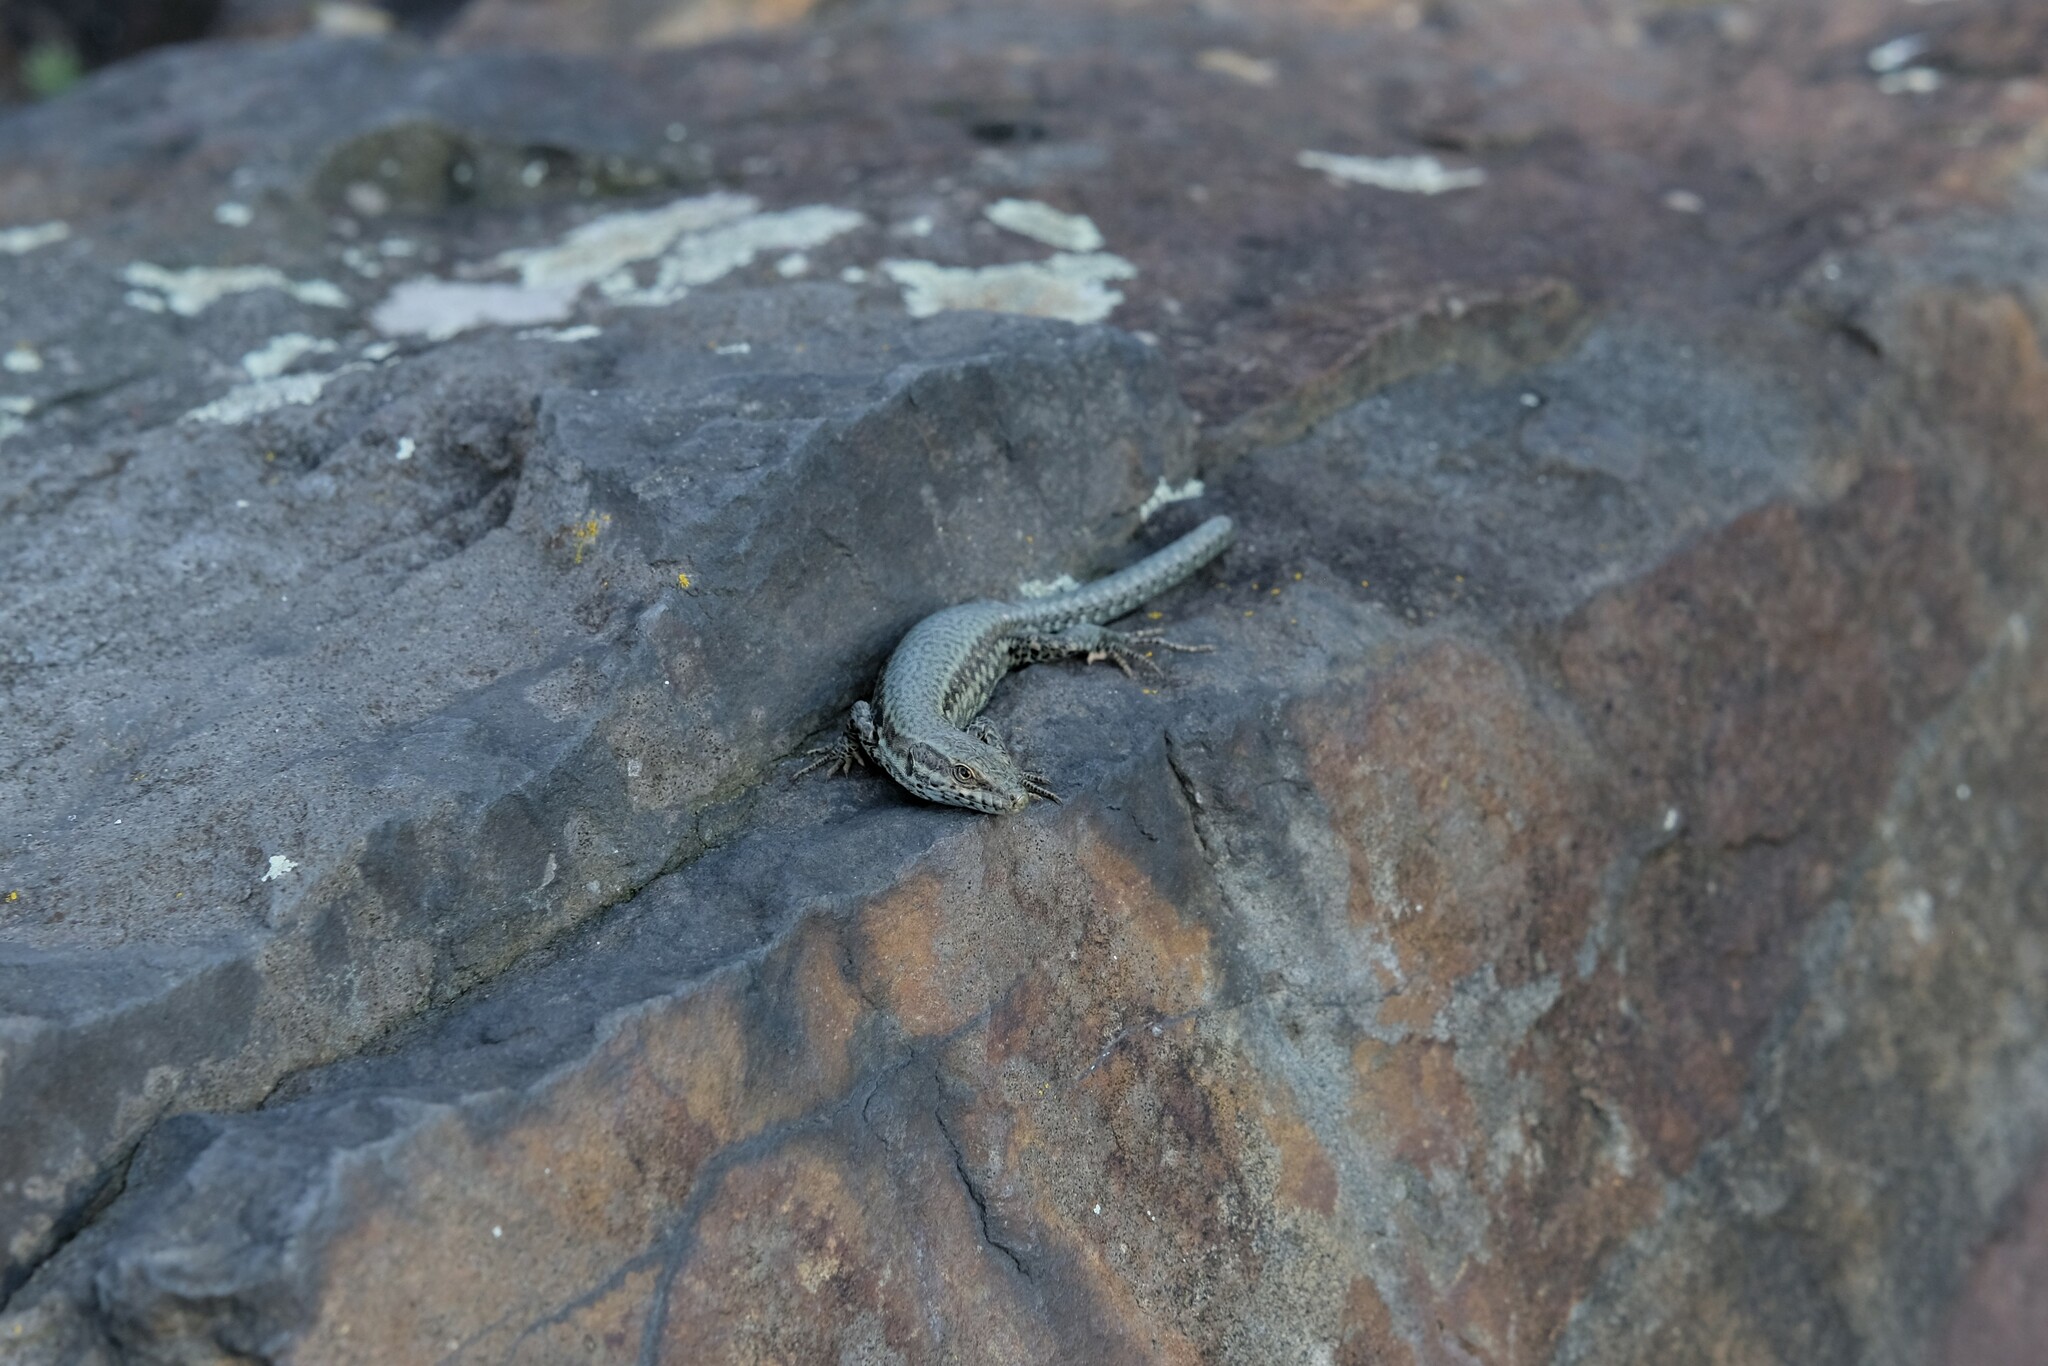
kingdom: Animalia
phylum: Chordata
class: Squamata
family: Lacertidae
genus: Podarcis
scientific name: Podarcis muralis
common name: Common wall lizard
